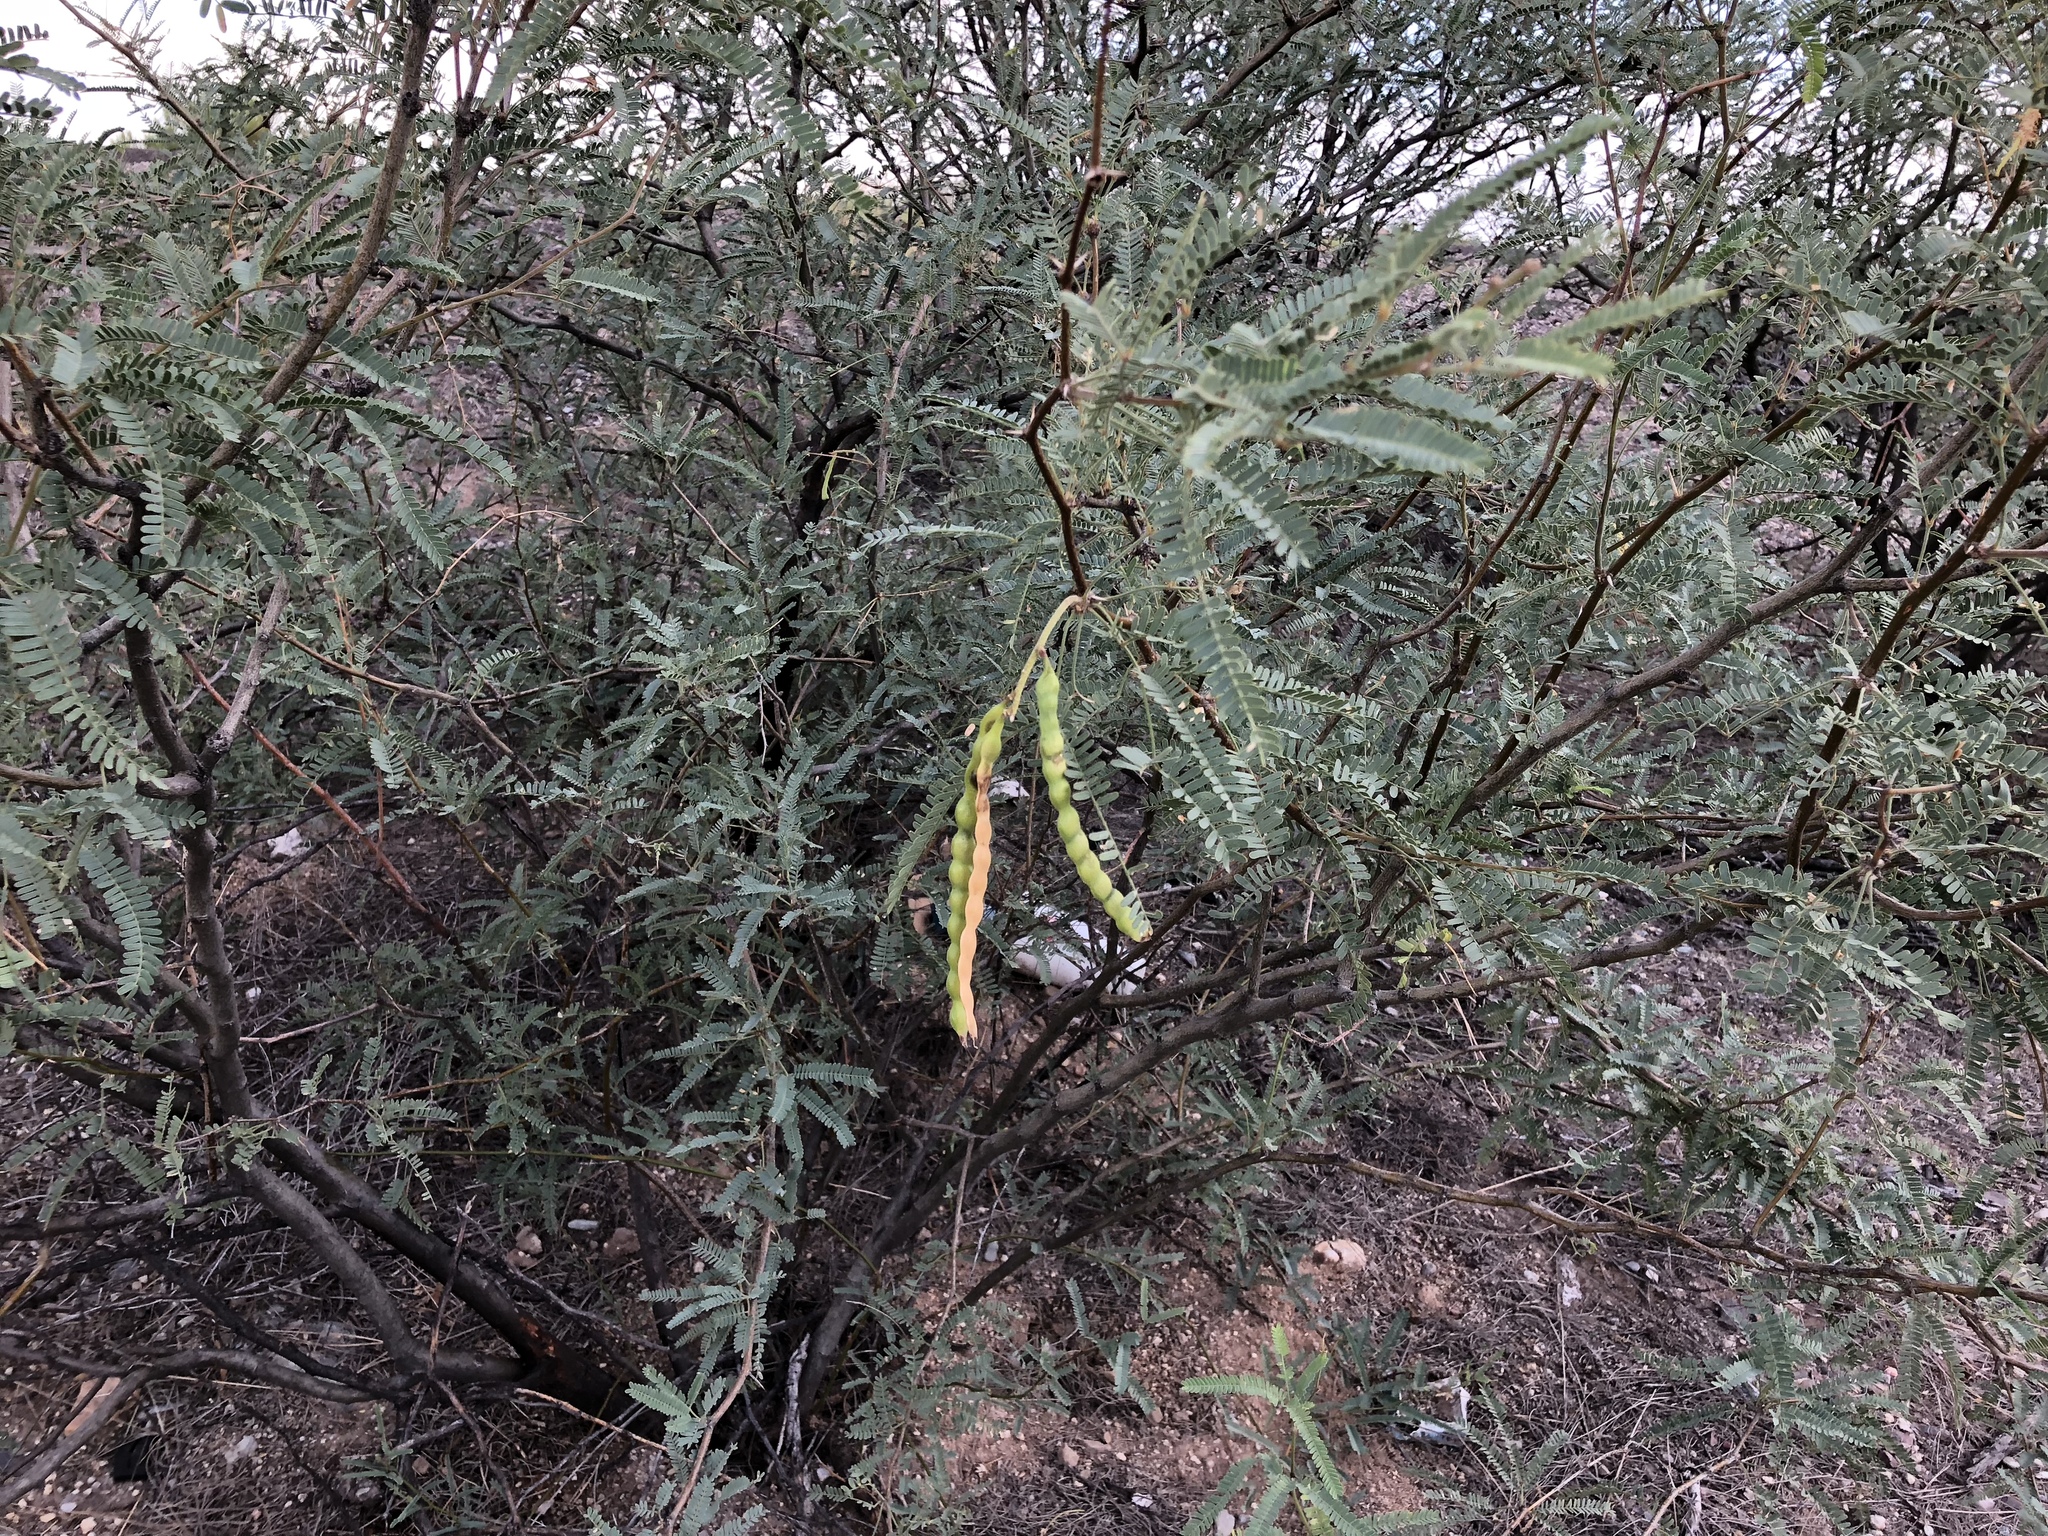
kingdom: Plantae
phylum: Tracheophyta
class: Magnoliopsida
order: Fabales
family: Fabaceae
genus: Prosopis
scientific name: Prosopis velutina
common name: Velvet mesquite
